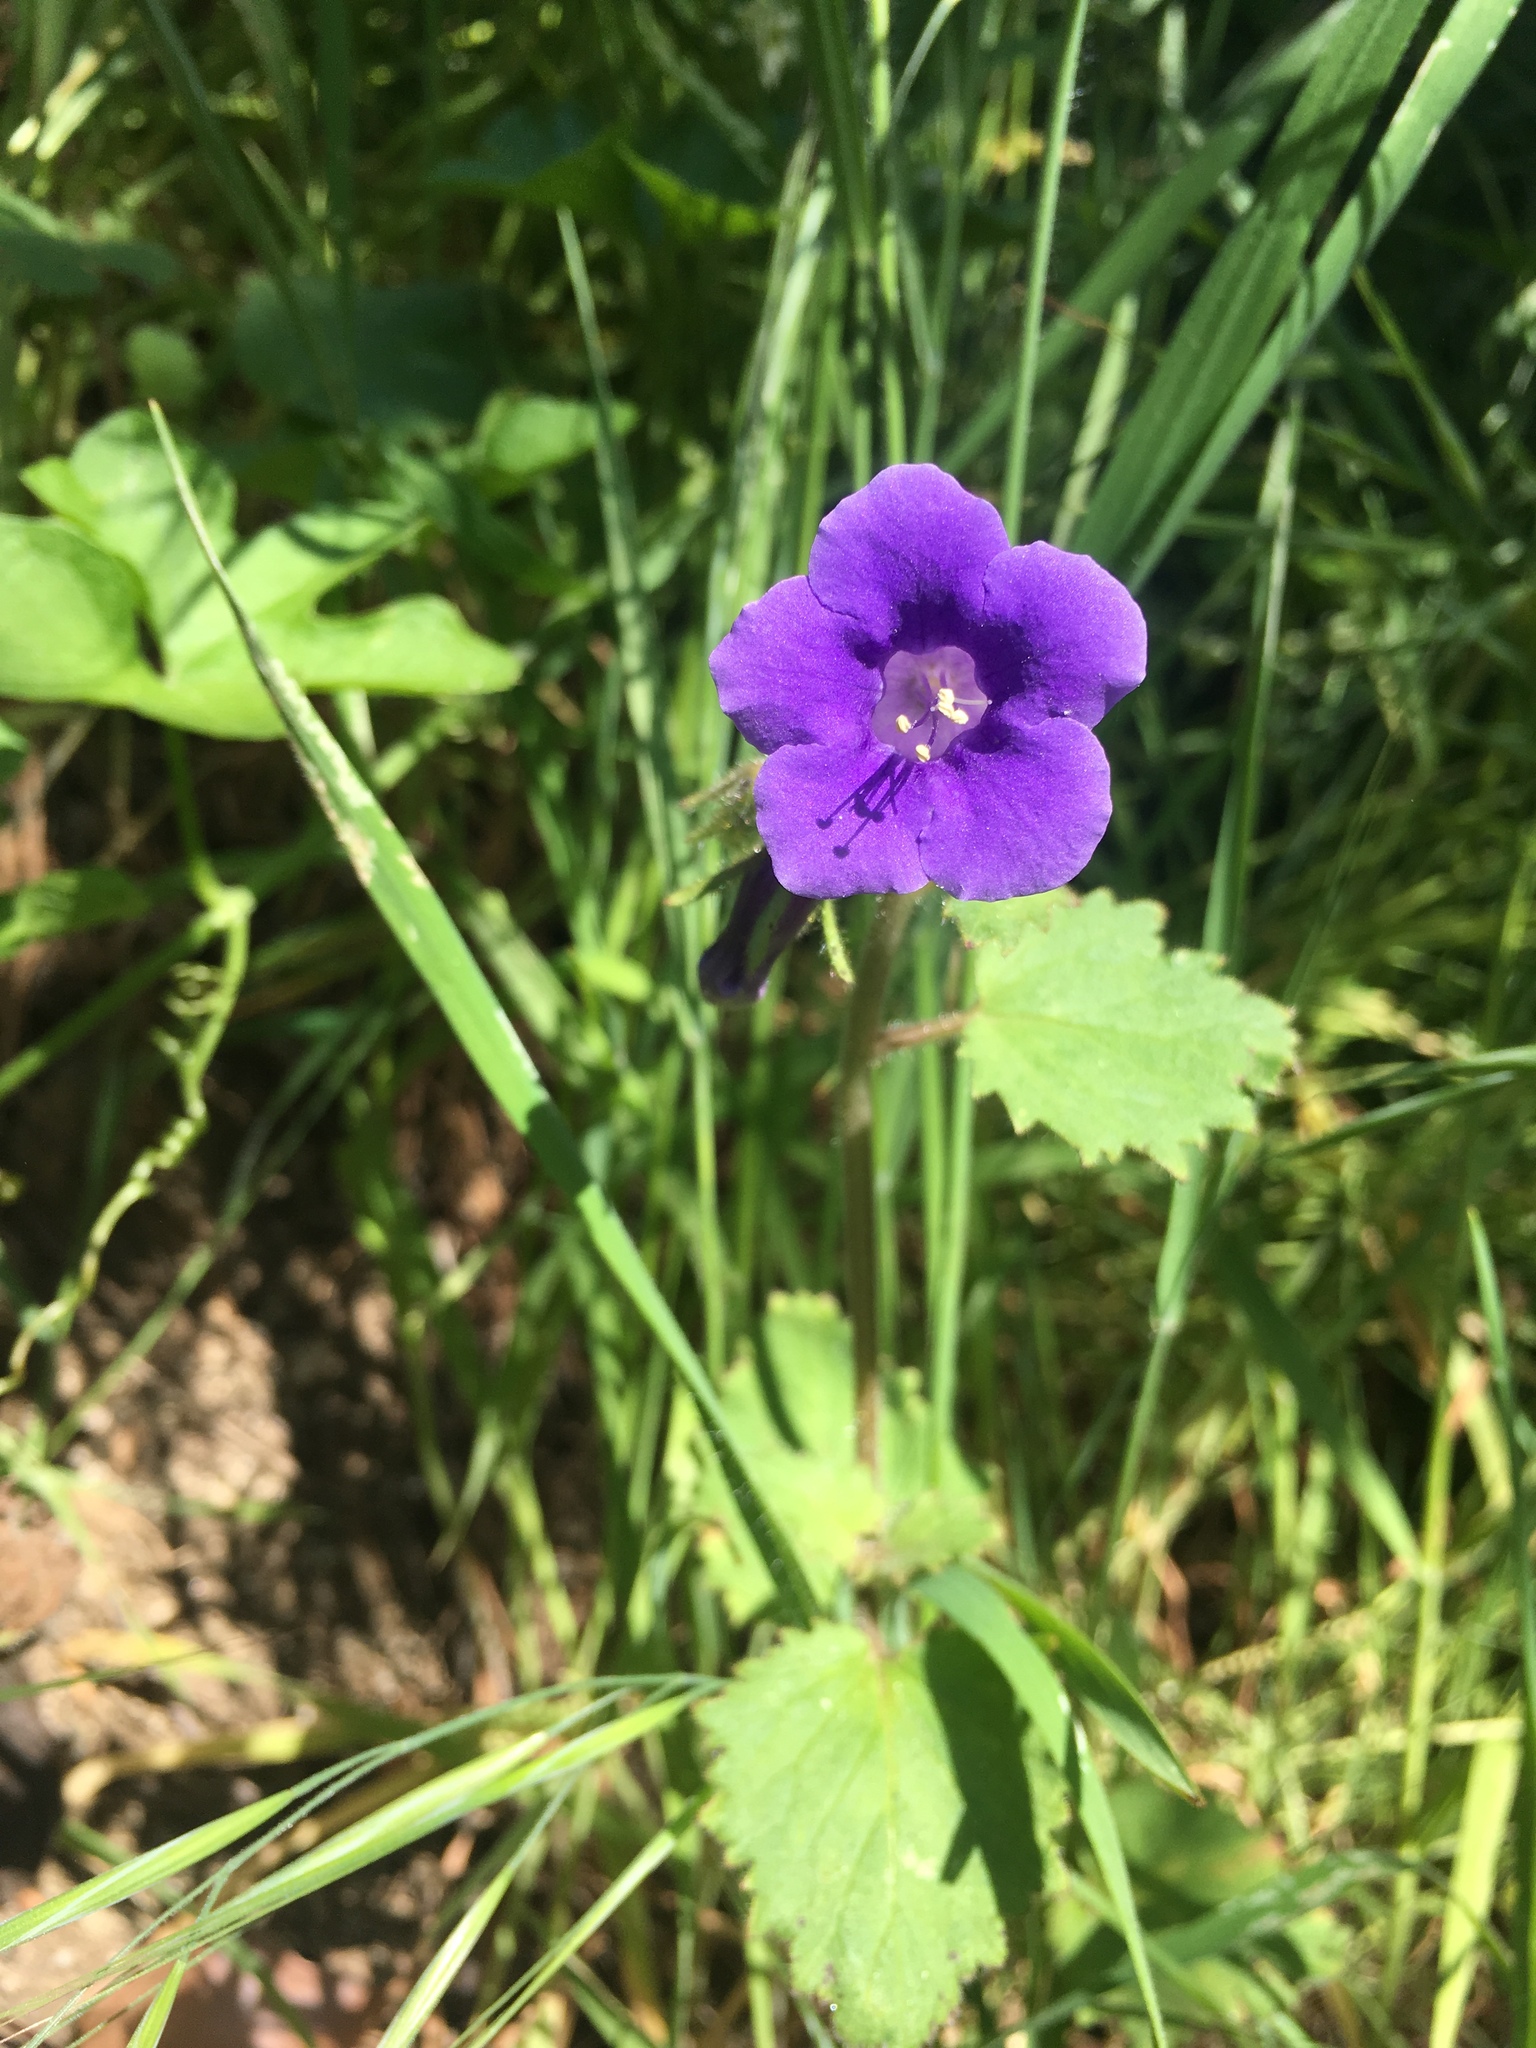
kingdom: Plantae
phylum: Tracheophyta
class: Magnoliopsida
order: Boraginales
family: Hydrophyllaceae
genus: Phacelia
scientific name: Phacelia minor
